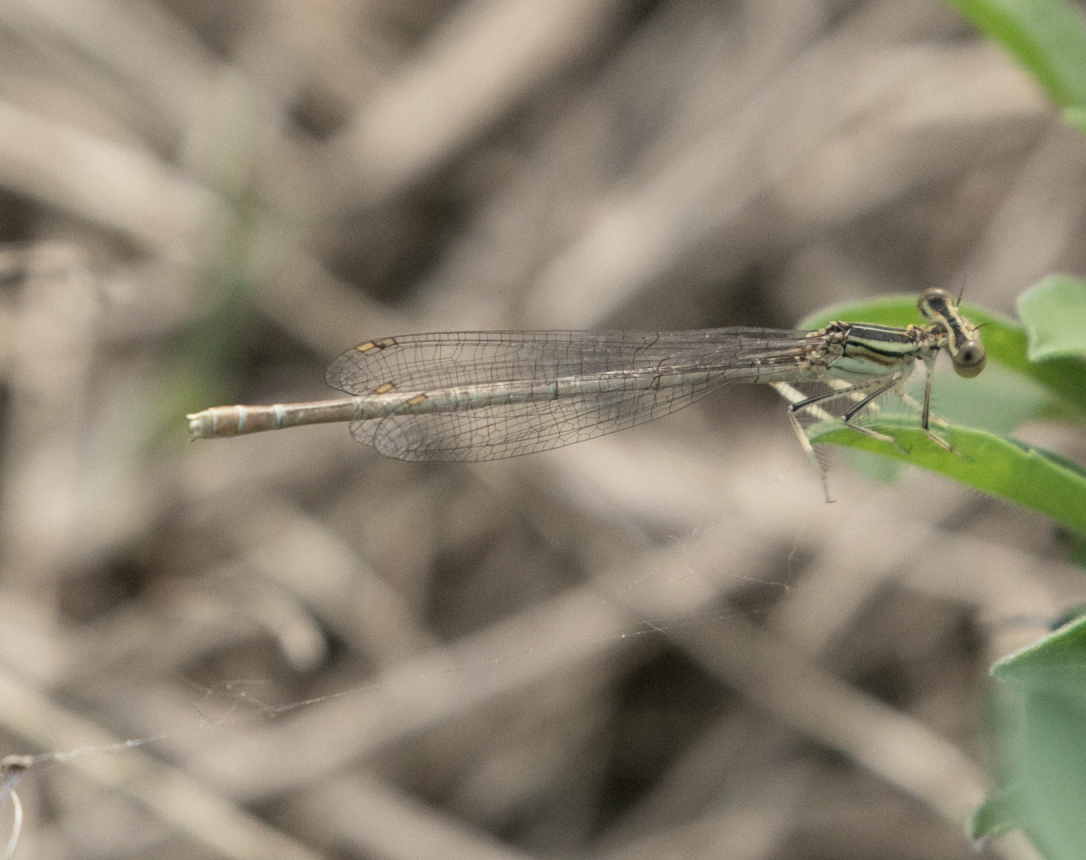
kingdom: Animalia
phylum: Arthropoda
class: Insecta
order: Odonata
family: Platycnemididae
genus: Platycnemis
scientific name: Platycnemis pennipes
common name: White-legged damselfly
